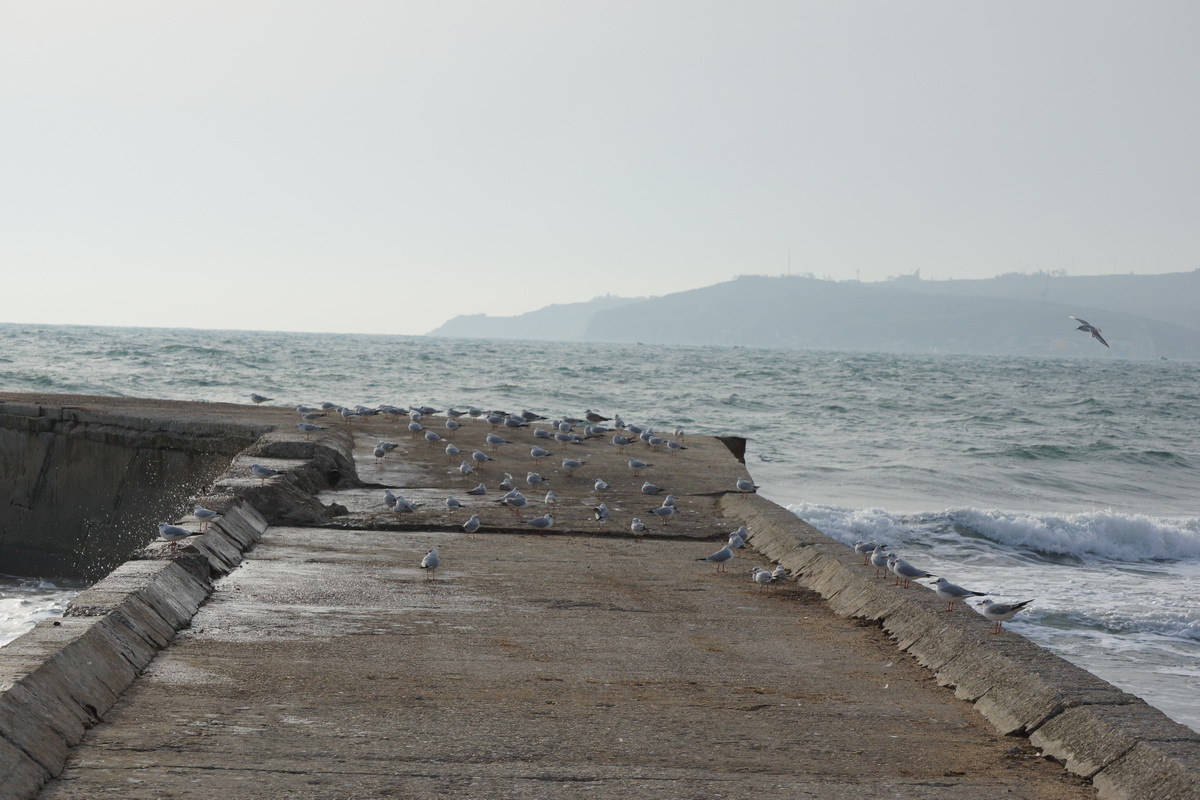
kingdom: Animalia
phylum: Chordata
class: Aves
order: Charadriiformes
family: Laridae
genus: Chroicocephalus
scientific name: Chroicocephalus ridibundus
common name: Black-headed gull
